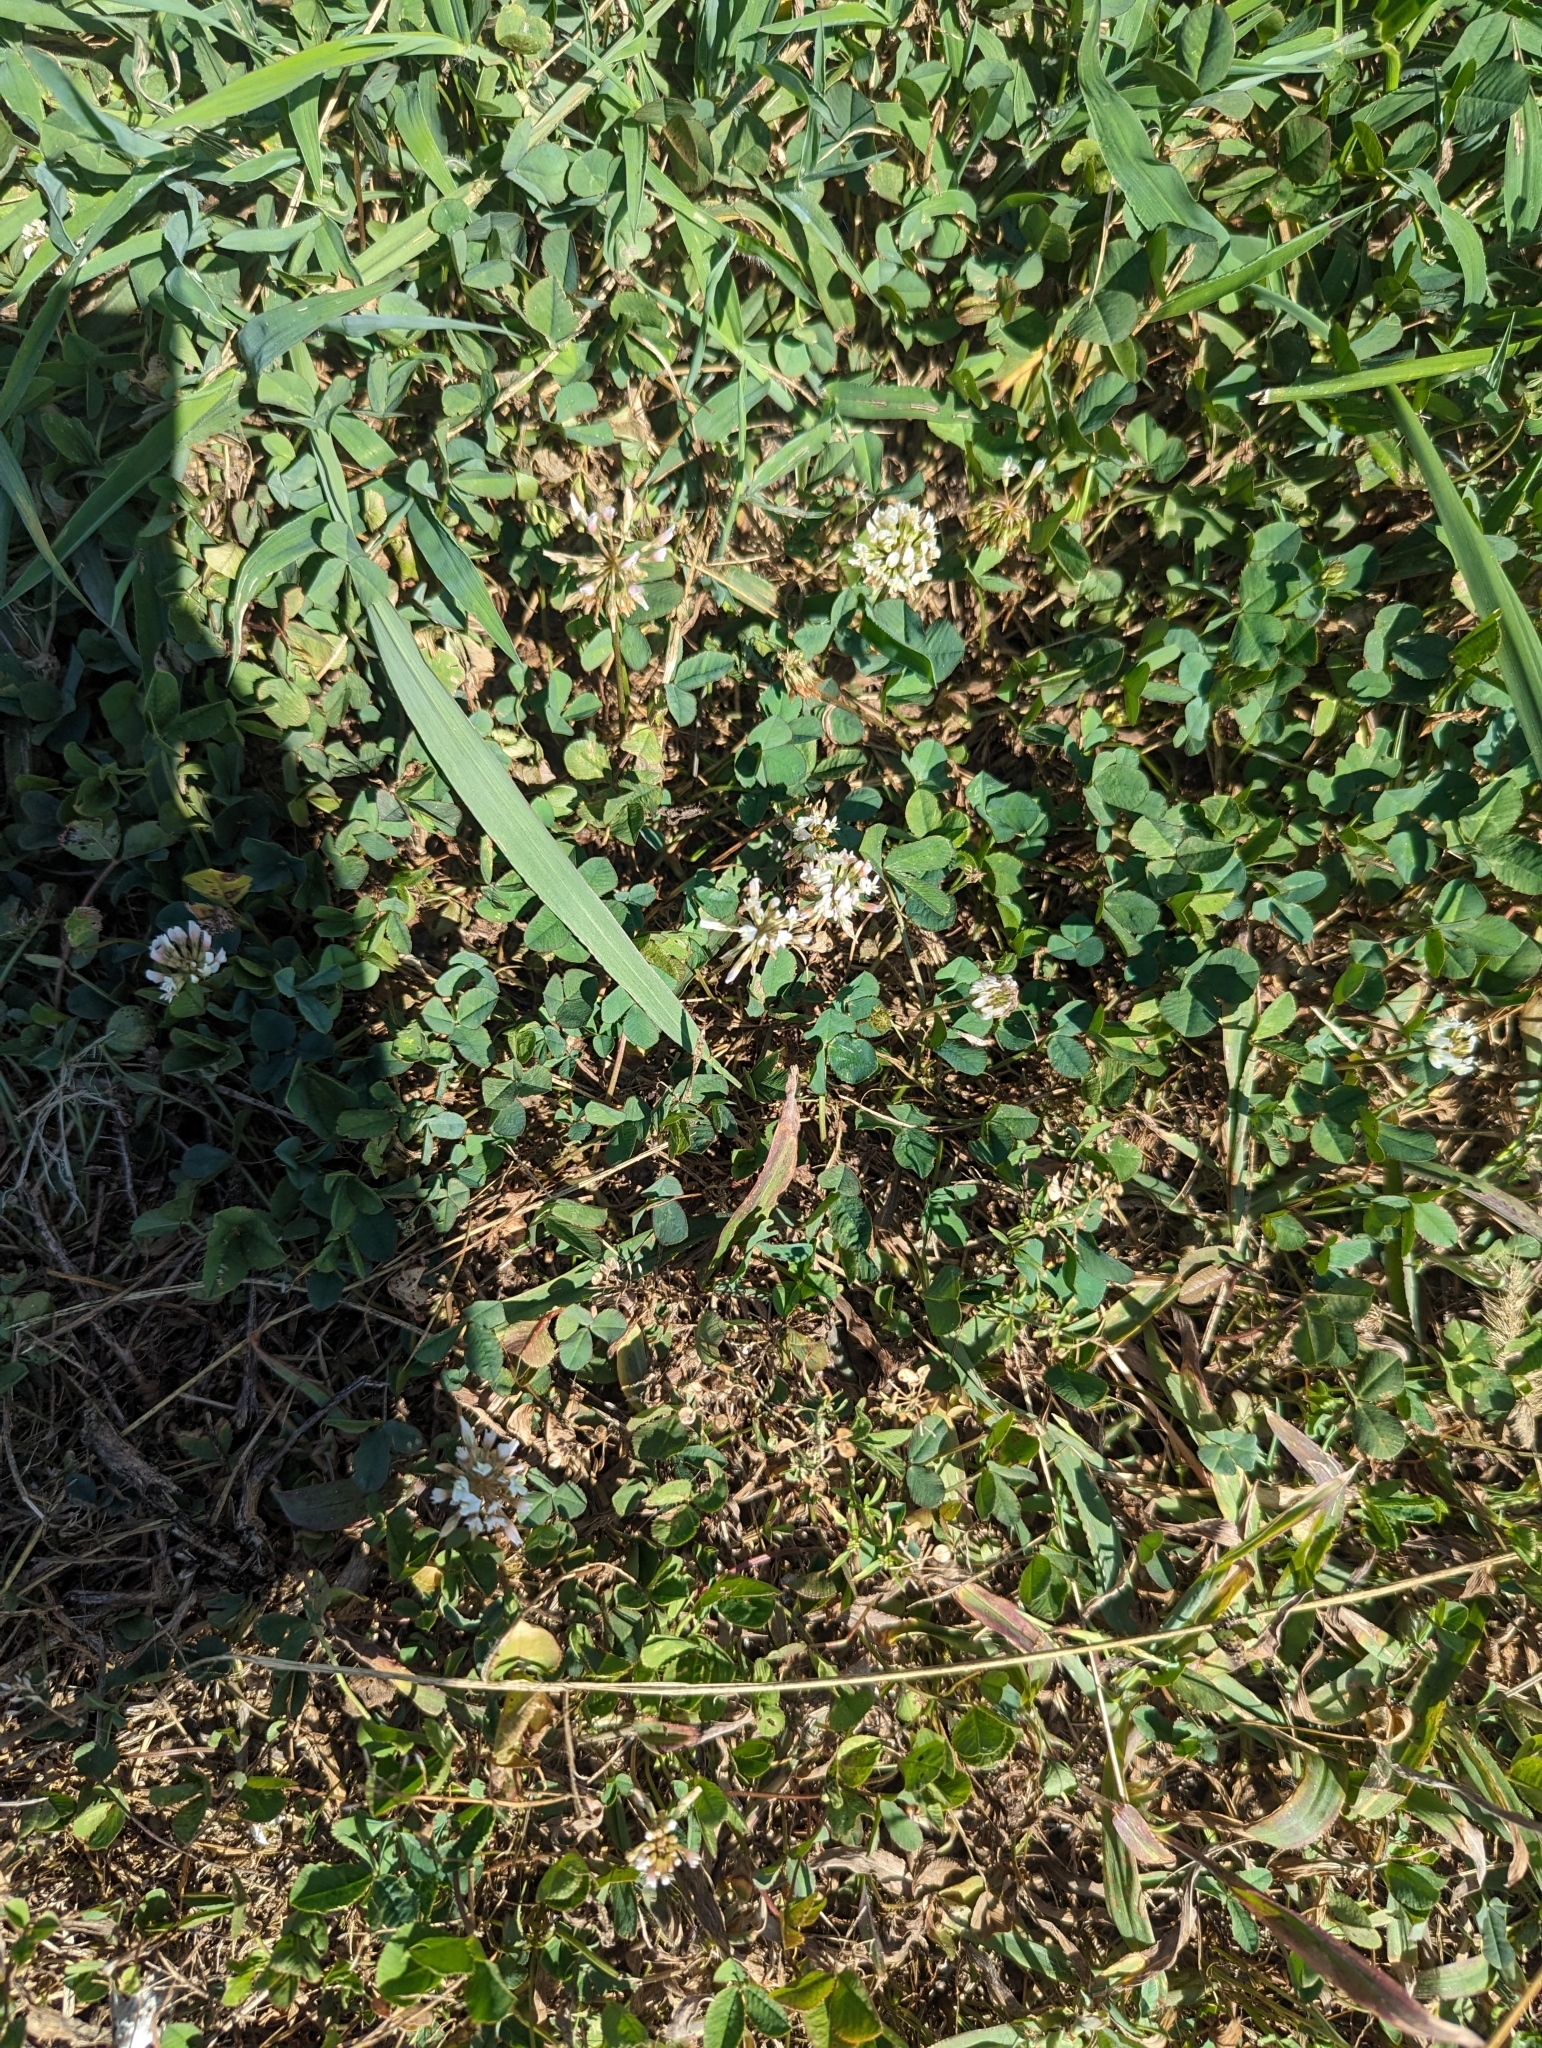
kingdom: Plantae
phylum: Tracheophyta
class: Magnoliopsida
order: Fabales
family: Fabaceae
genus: Trifolium
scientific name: Trifolium repens
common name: White clover
